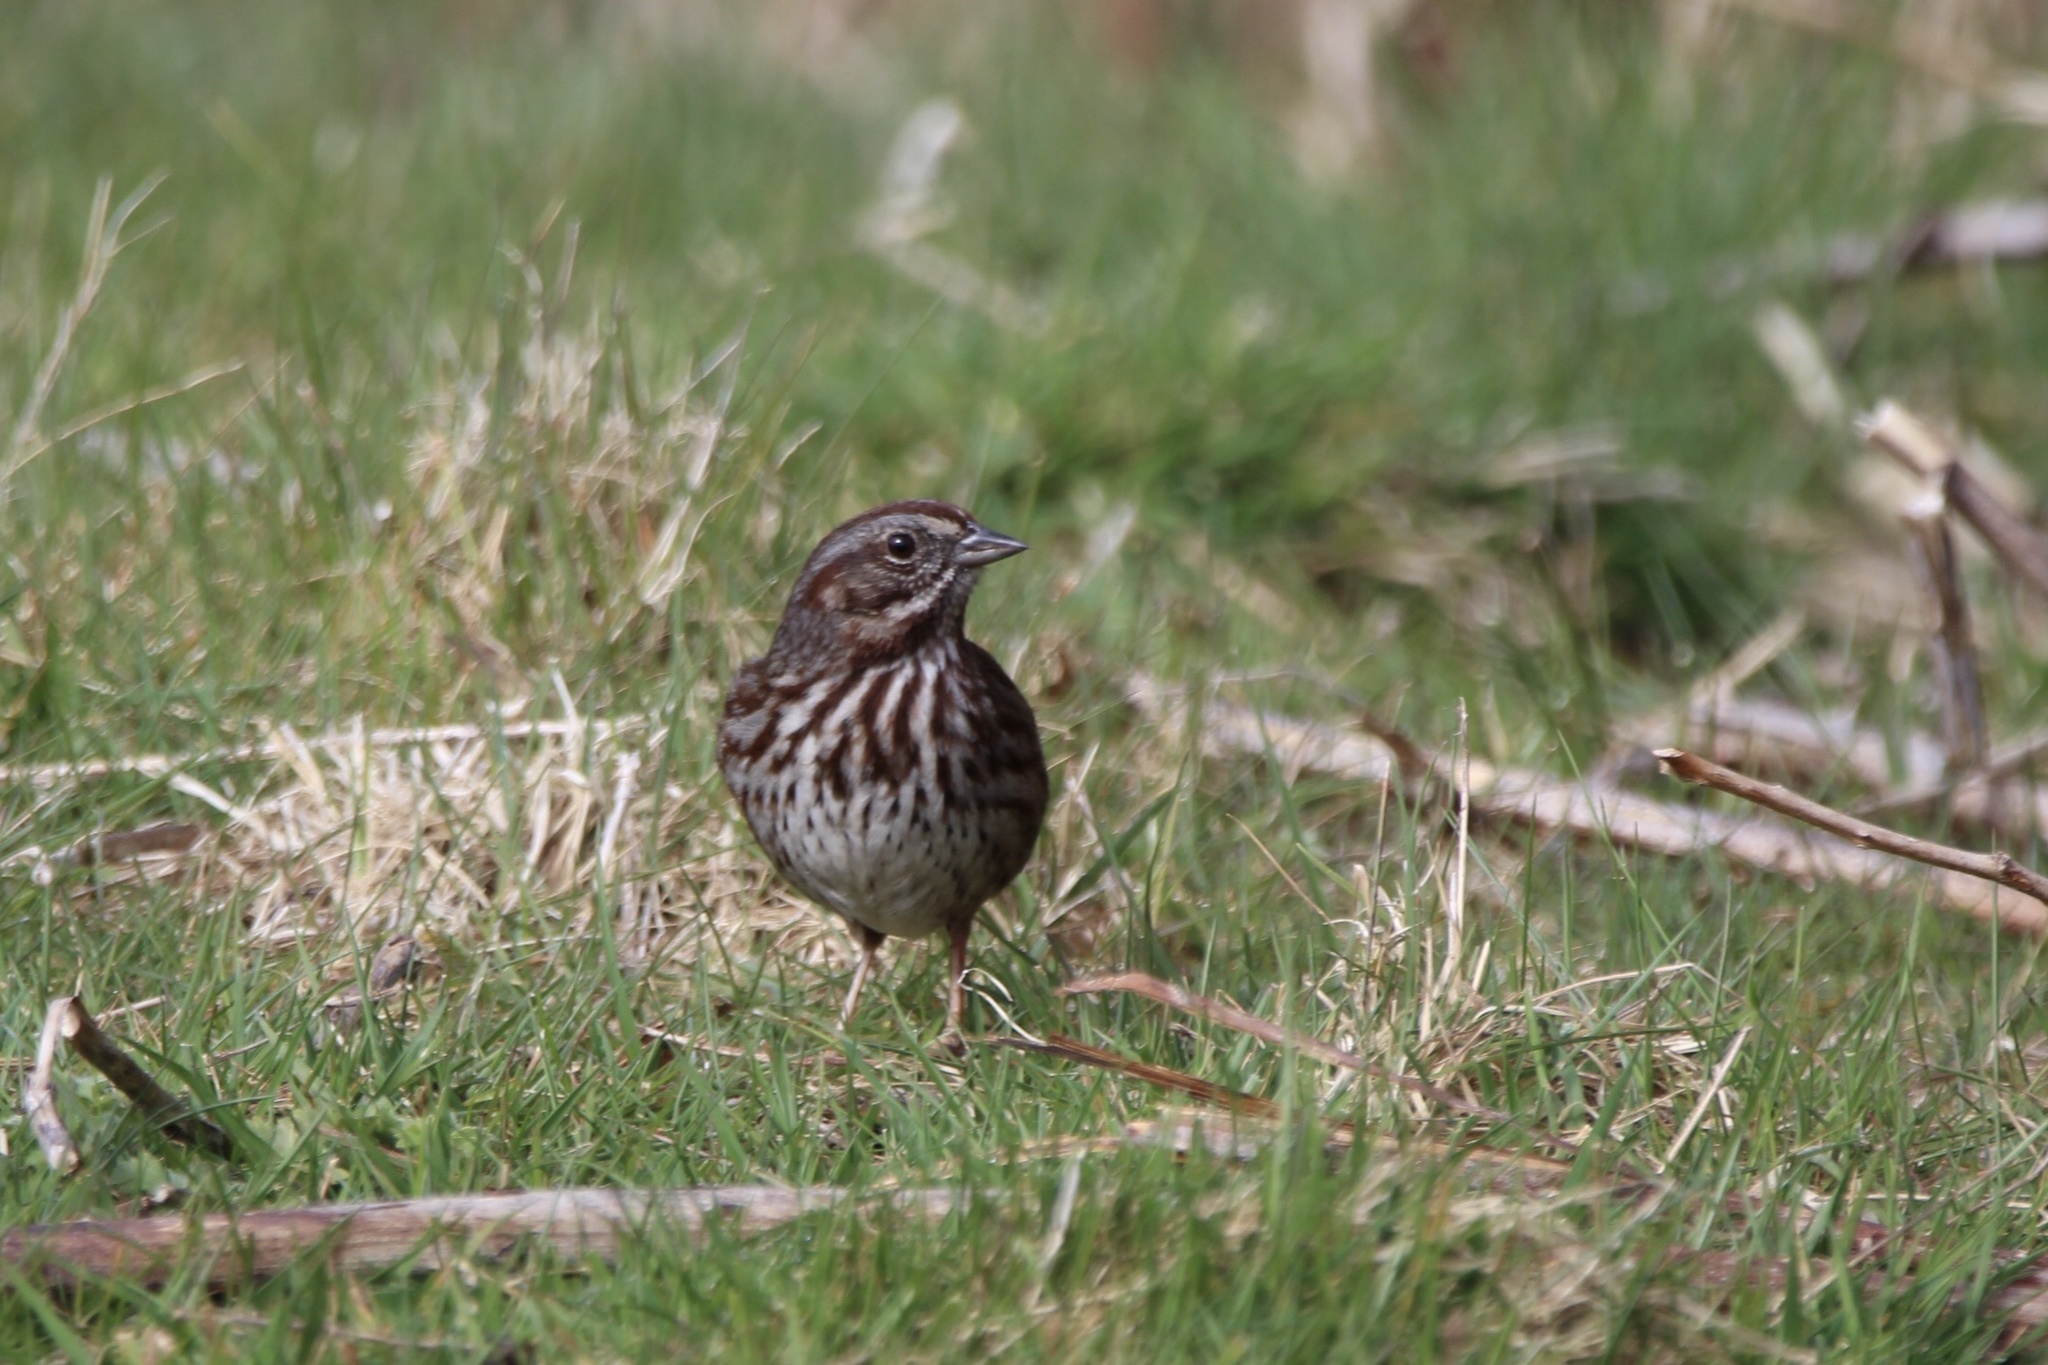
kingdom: Animalia
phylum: Chordata
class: Aves
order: Passeriformes
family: Passerellidae
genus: Melospiza
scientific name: Melospiza melodia
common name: Song sparrow
